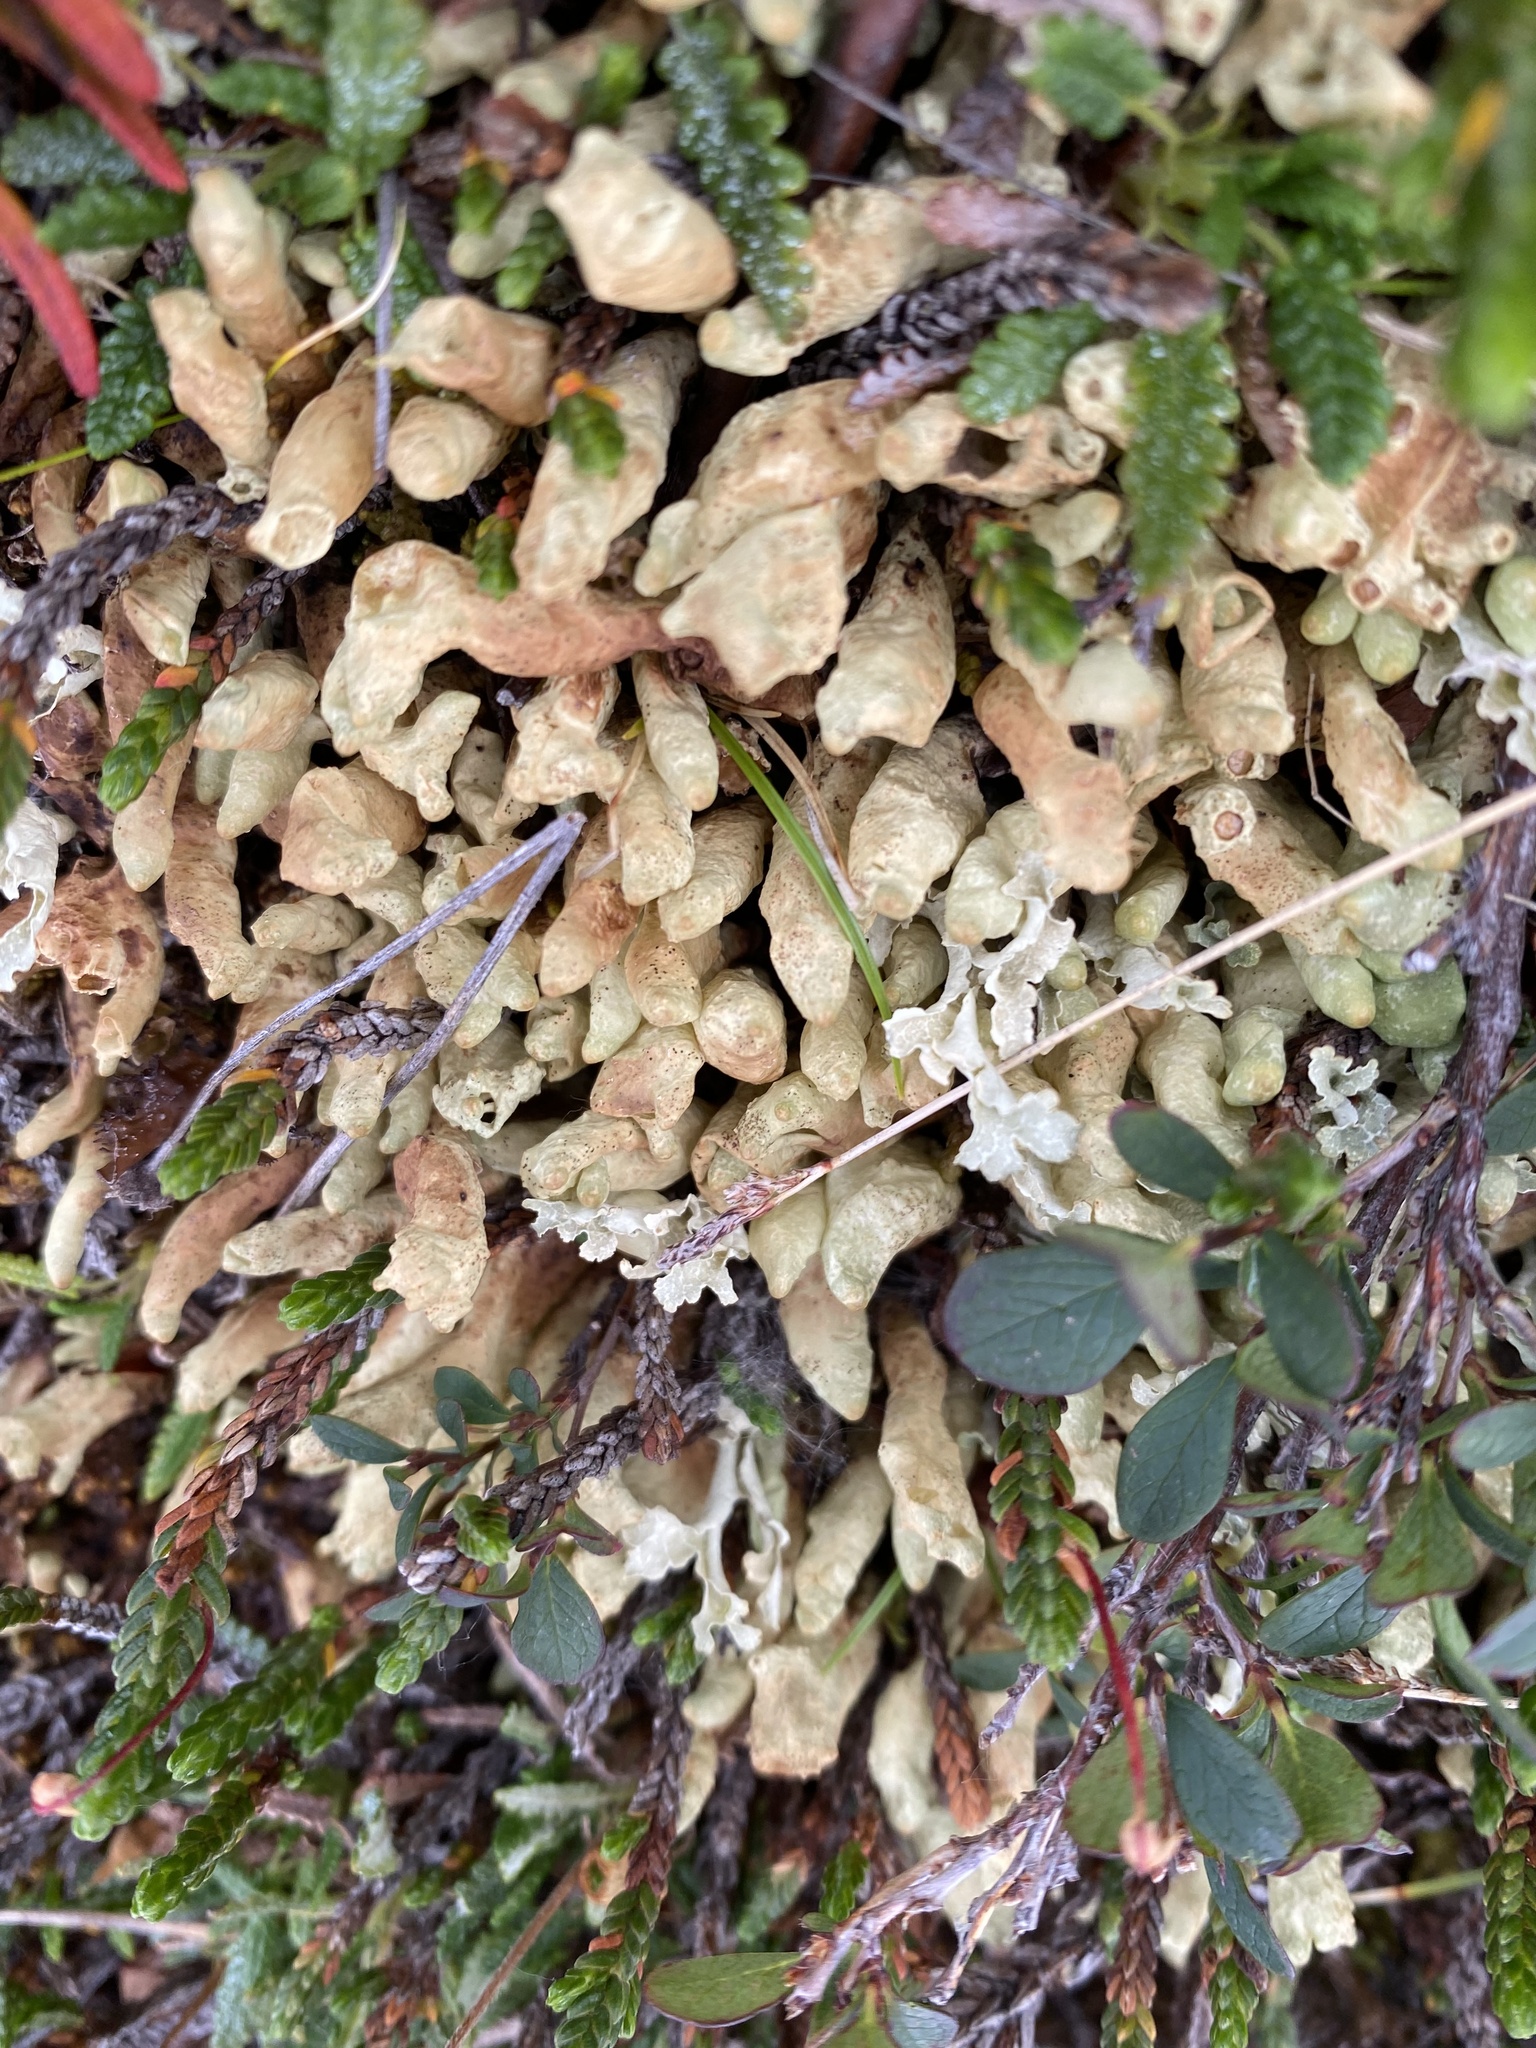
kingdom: Fungi
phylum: Ascomycota
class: Lecanoromycetes
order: Lecanorales
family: Parmeliaceae
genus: Dactylina
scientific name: Dactylina arctica
